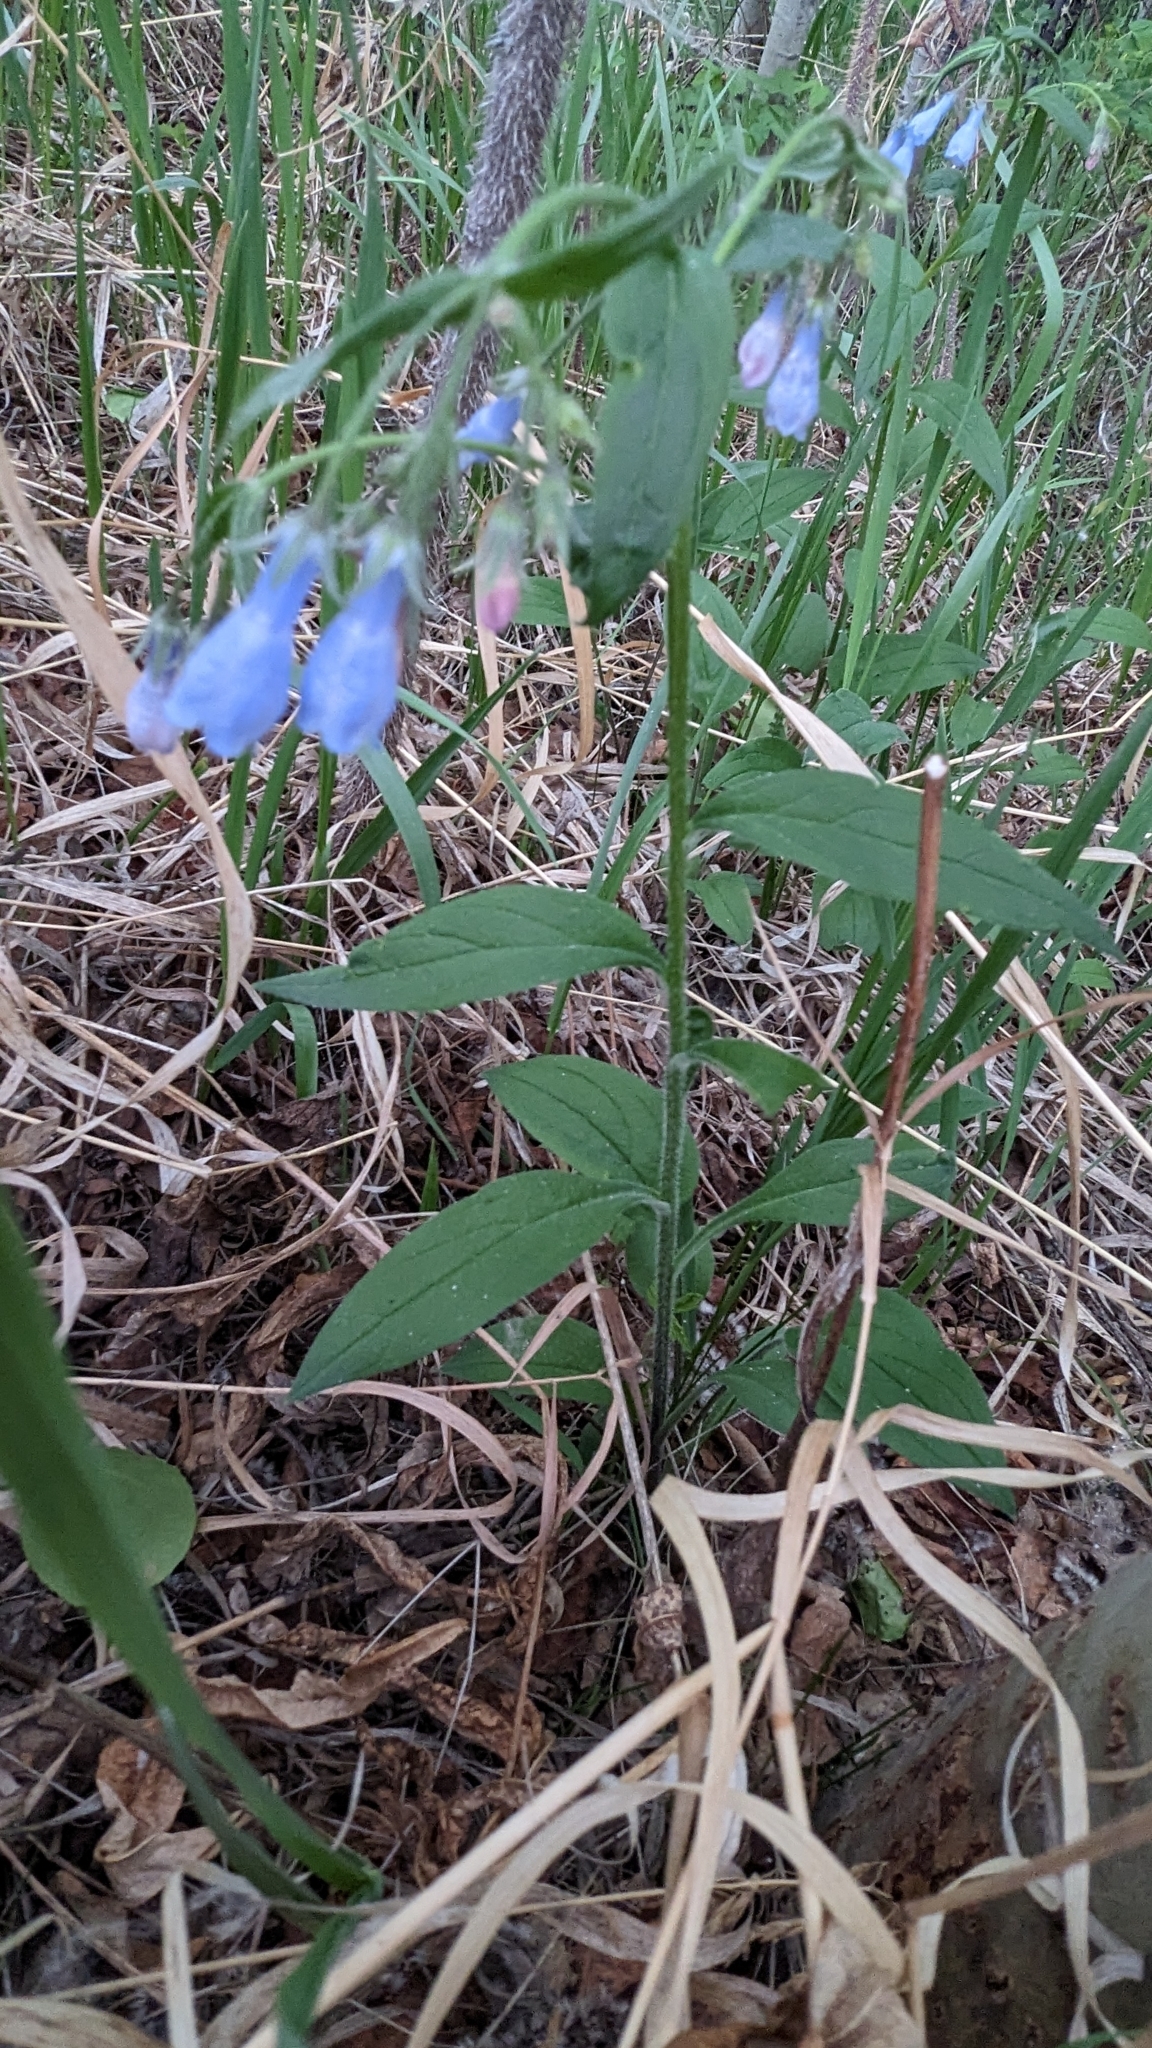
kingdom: Plantae
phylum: Tracheophyta
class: Magnoliopsida
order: Boraginales
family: Boraginaceae
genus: Mertensia
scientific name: Mertensia paniculata
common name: Panicled bluebells
